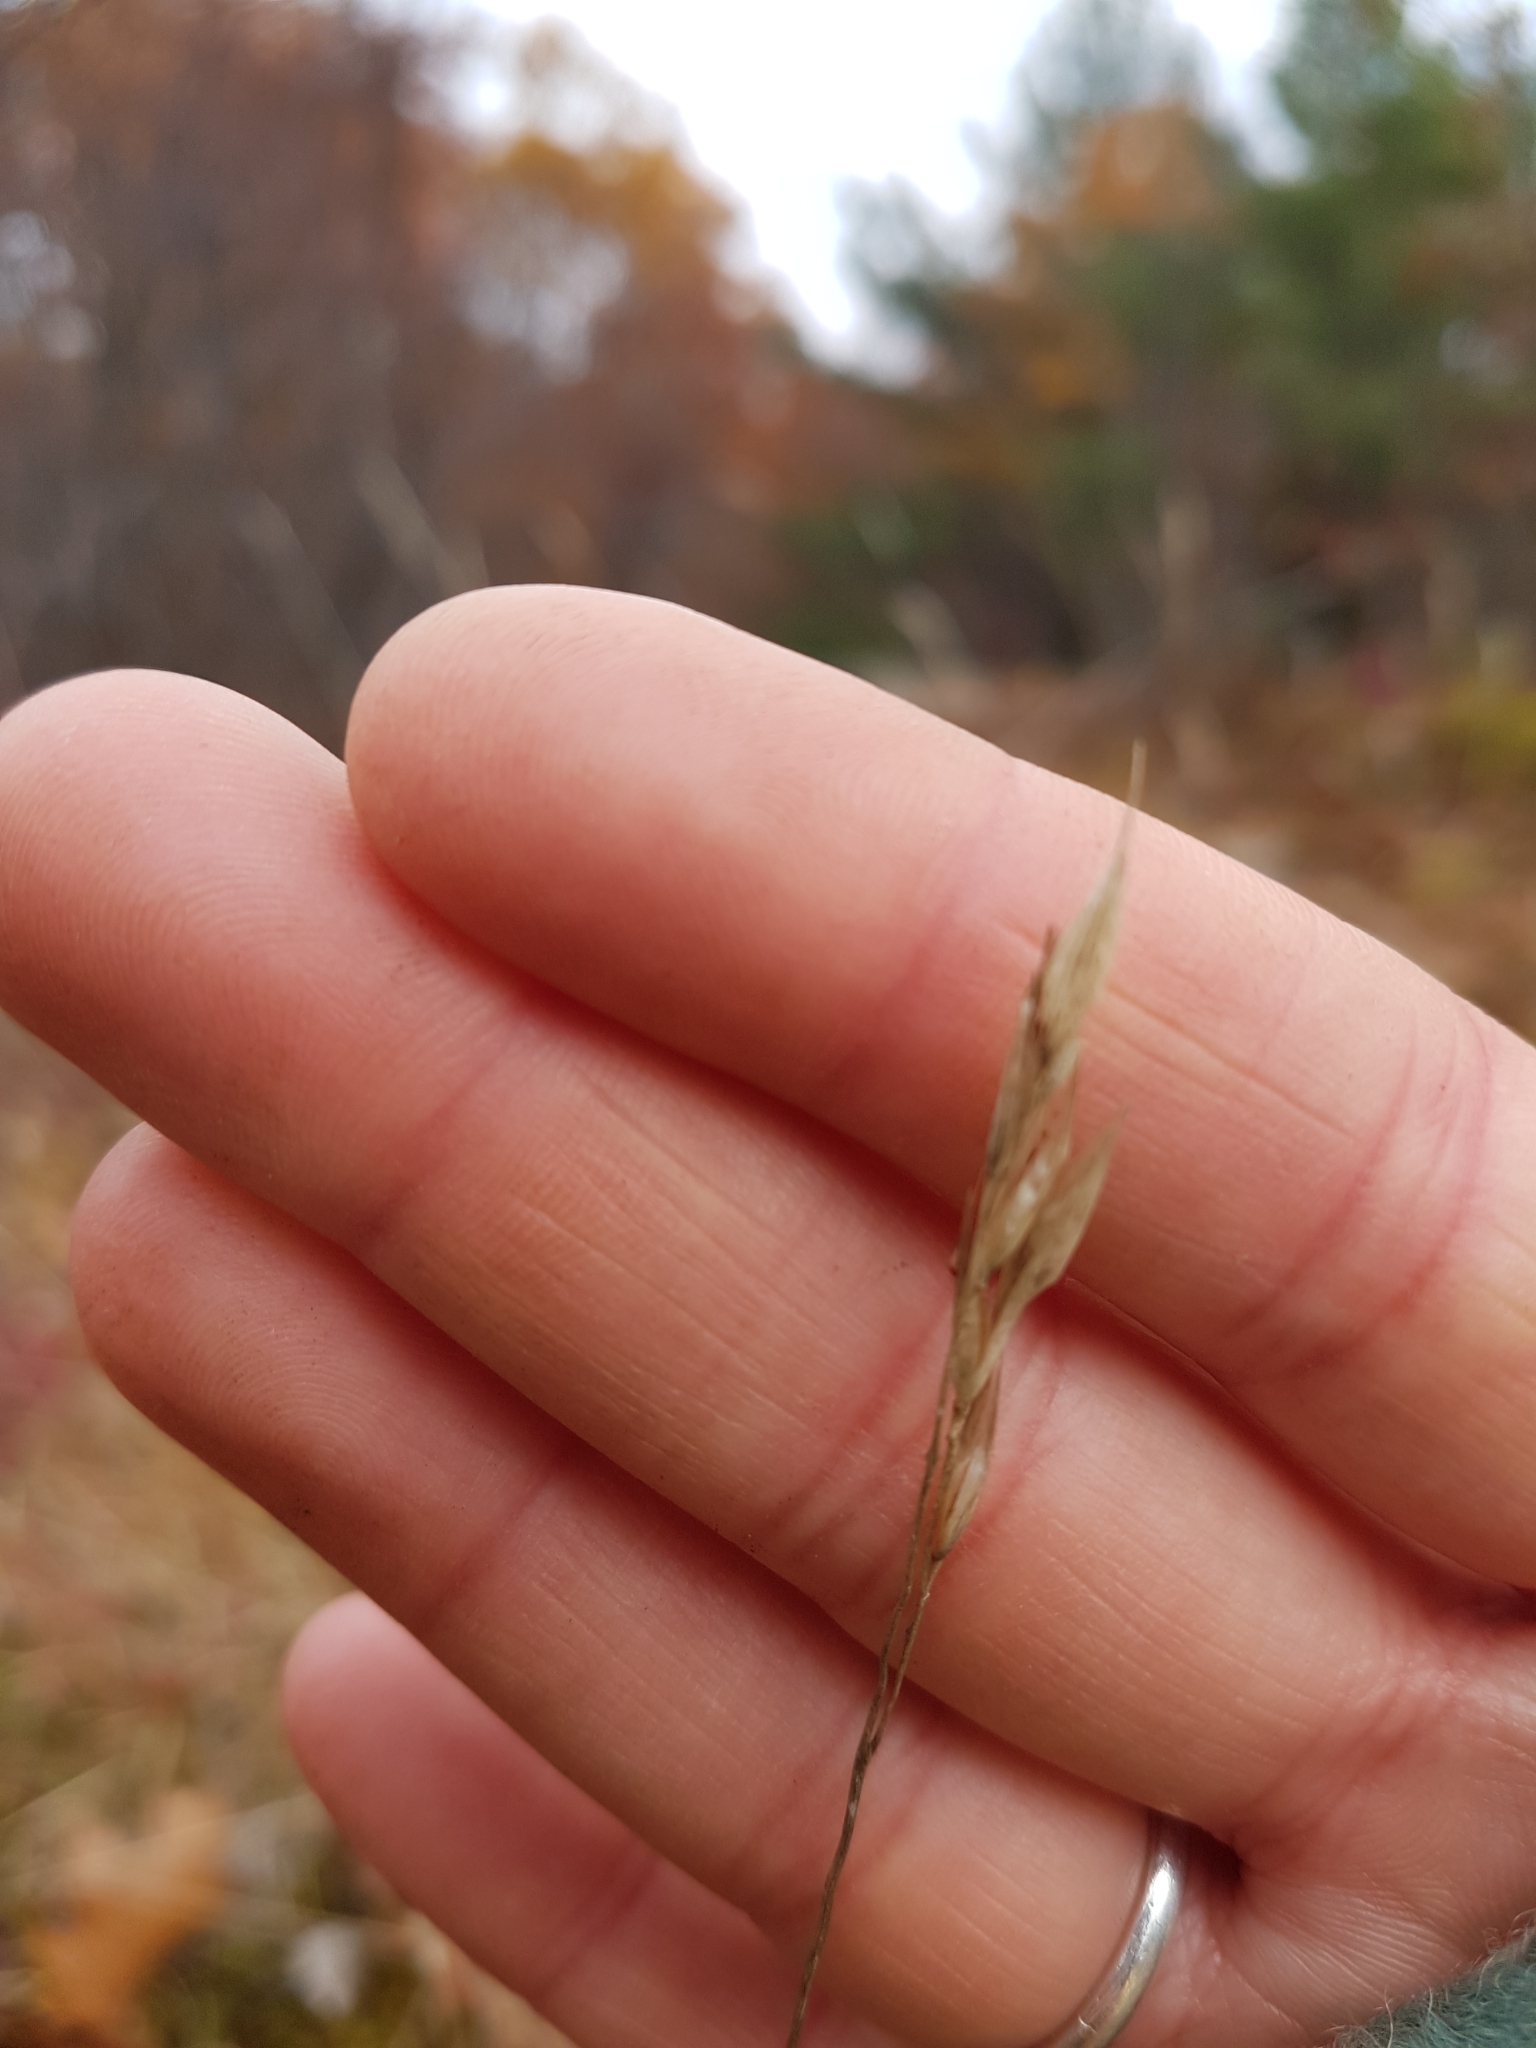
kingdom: Plantae
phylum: Tracheophyta
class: Liliopsida
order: Poales
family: Poaceae
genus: Danthonia
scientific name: Danthonia spicata
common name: Common wild oatgrass
